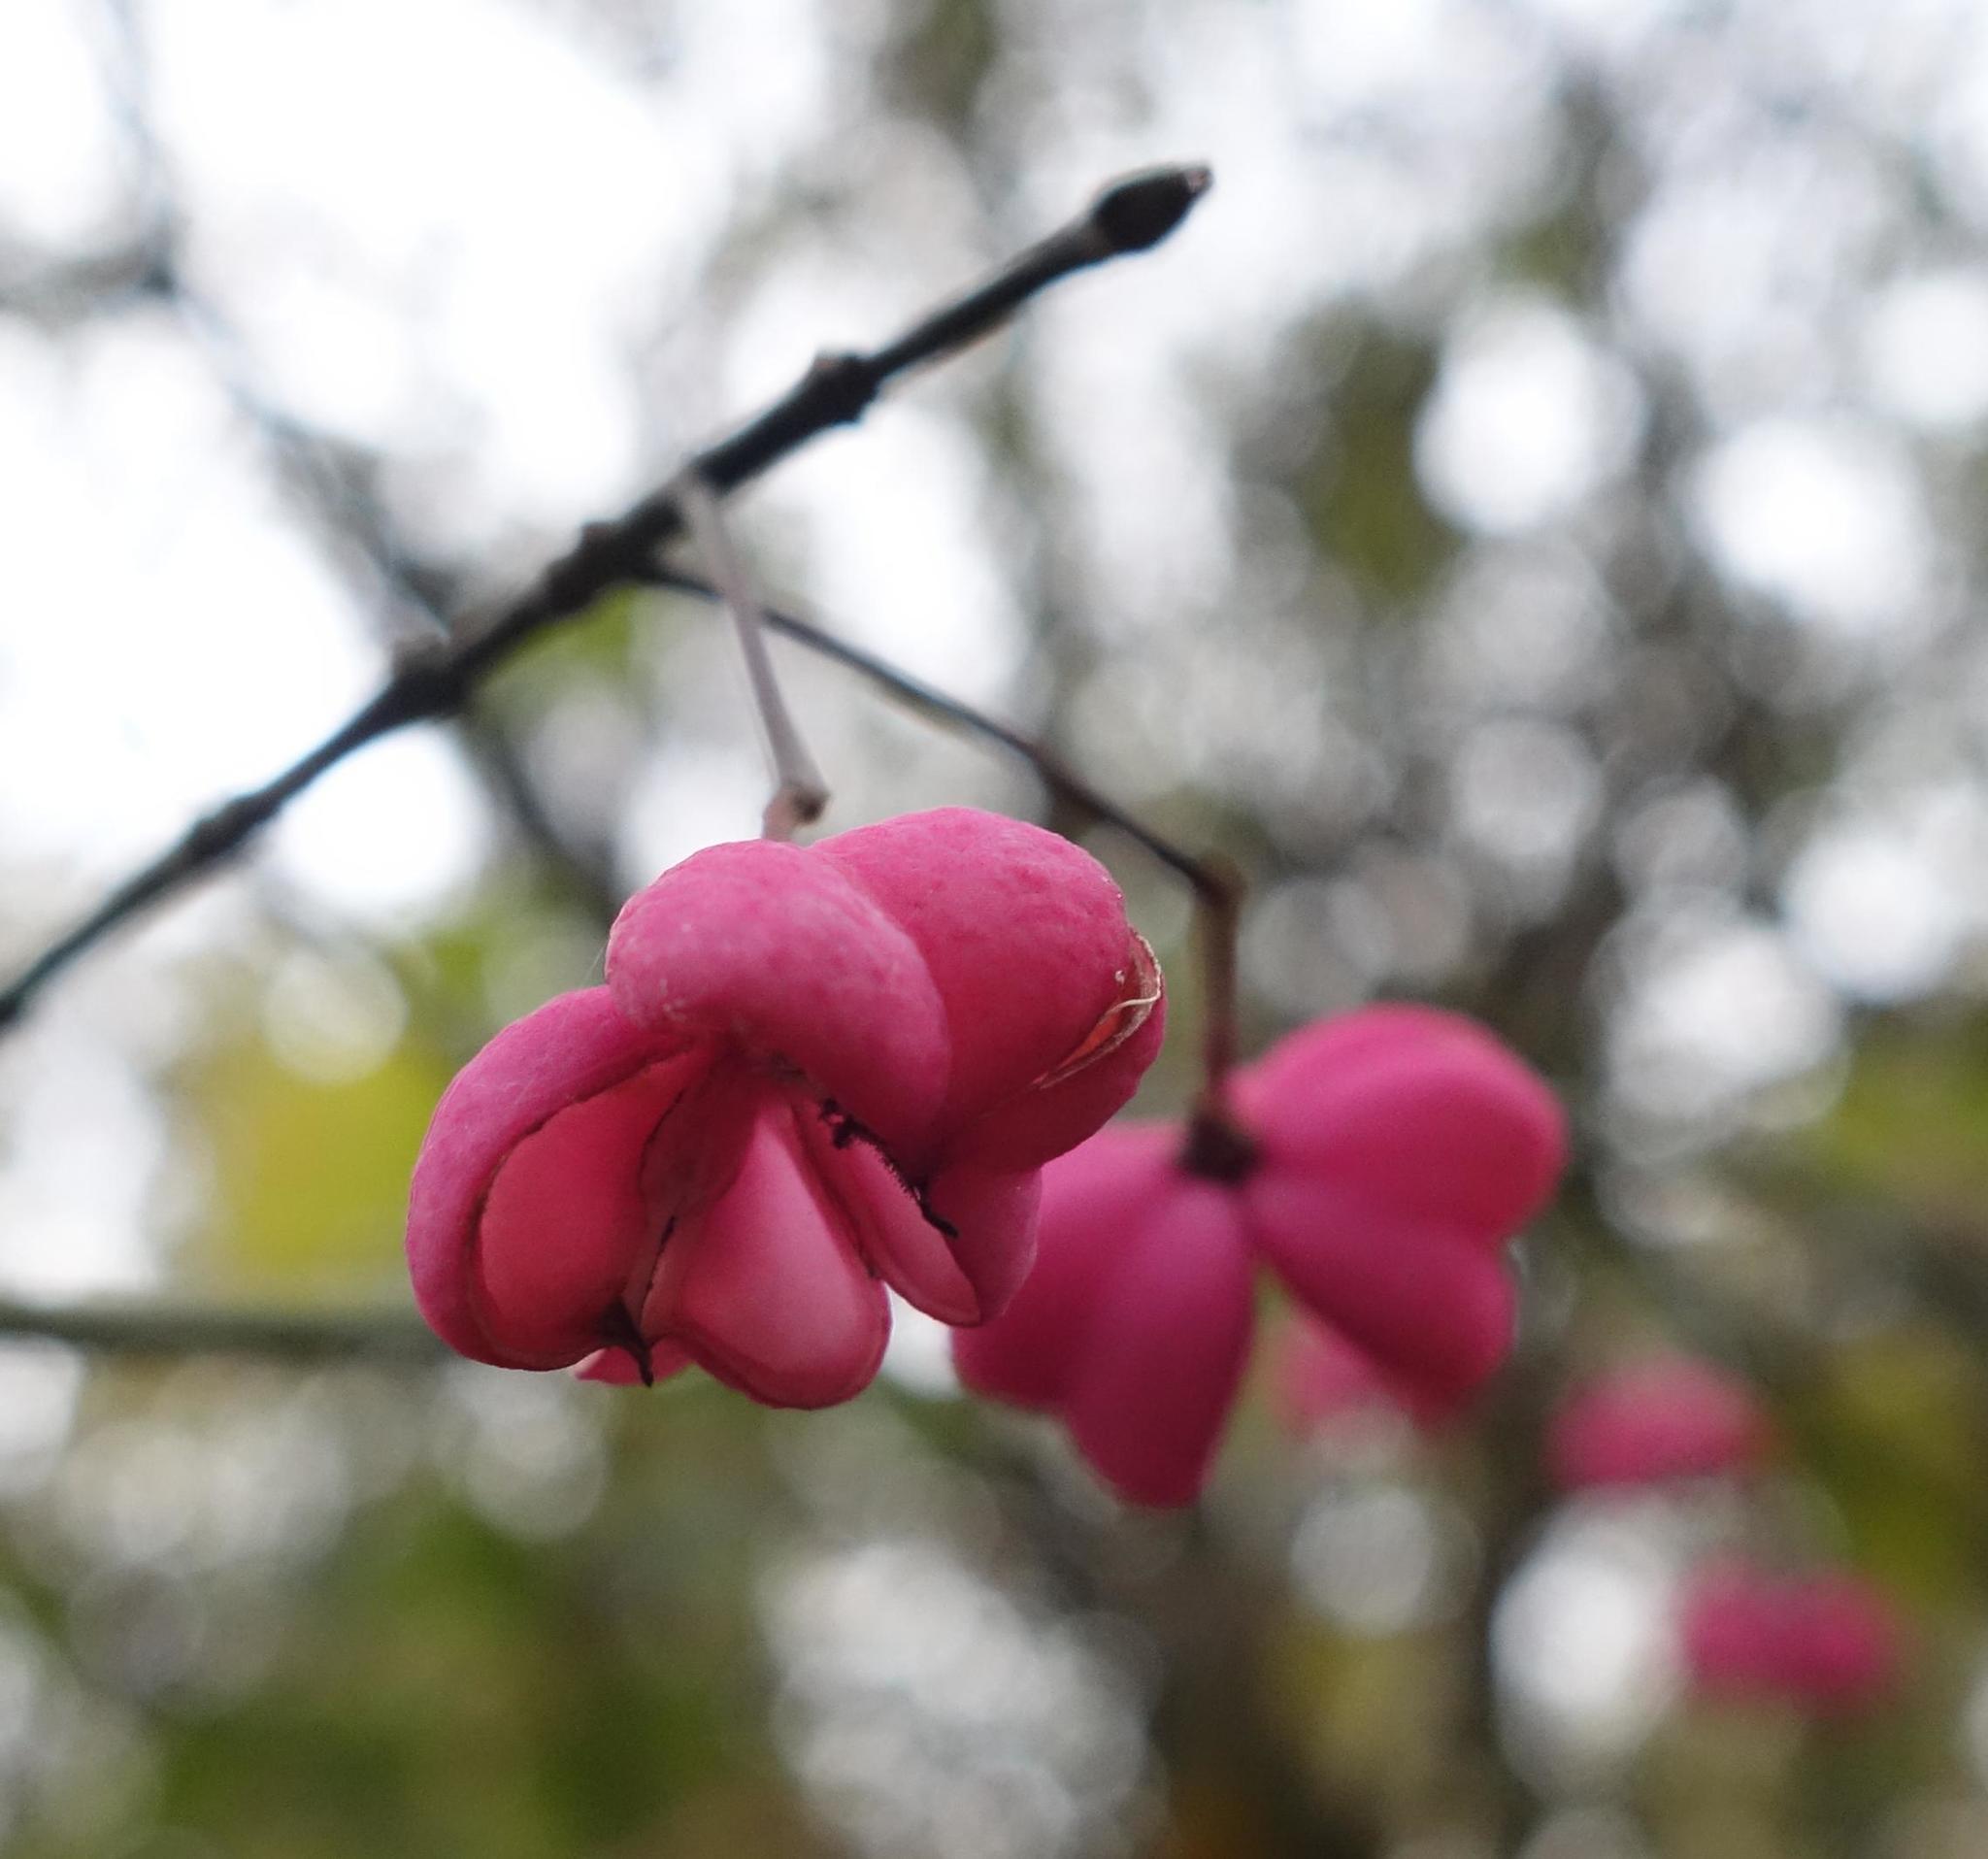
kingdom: Plantae
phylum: Tracheophyta
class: Magnoliopsida
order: Celastrales
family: Celastraceae
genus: Euonymus
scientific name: Euonymus europaeus
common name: Spindle
